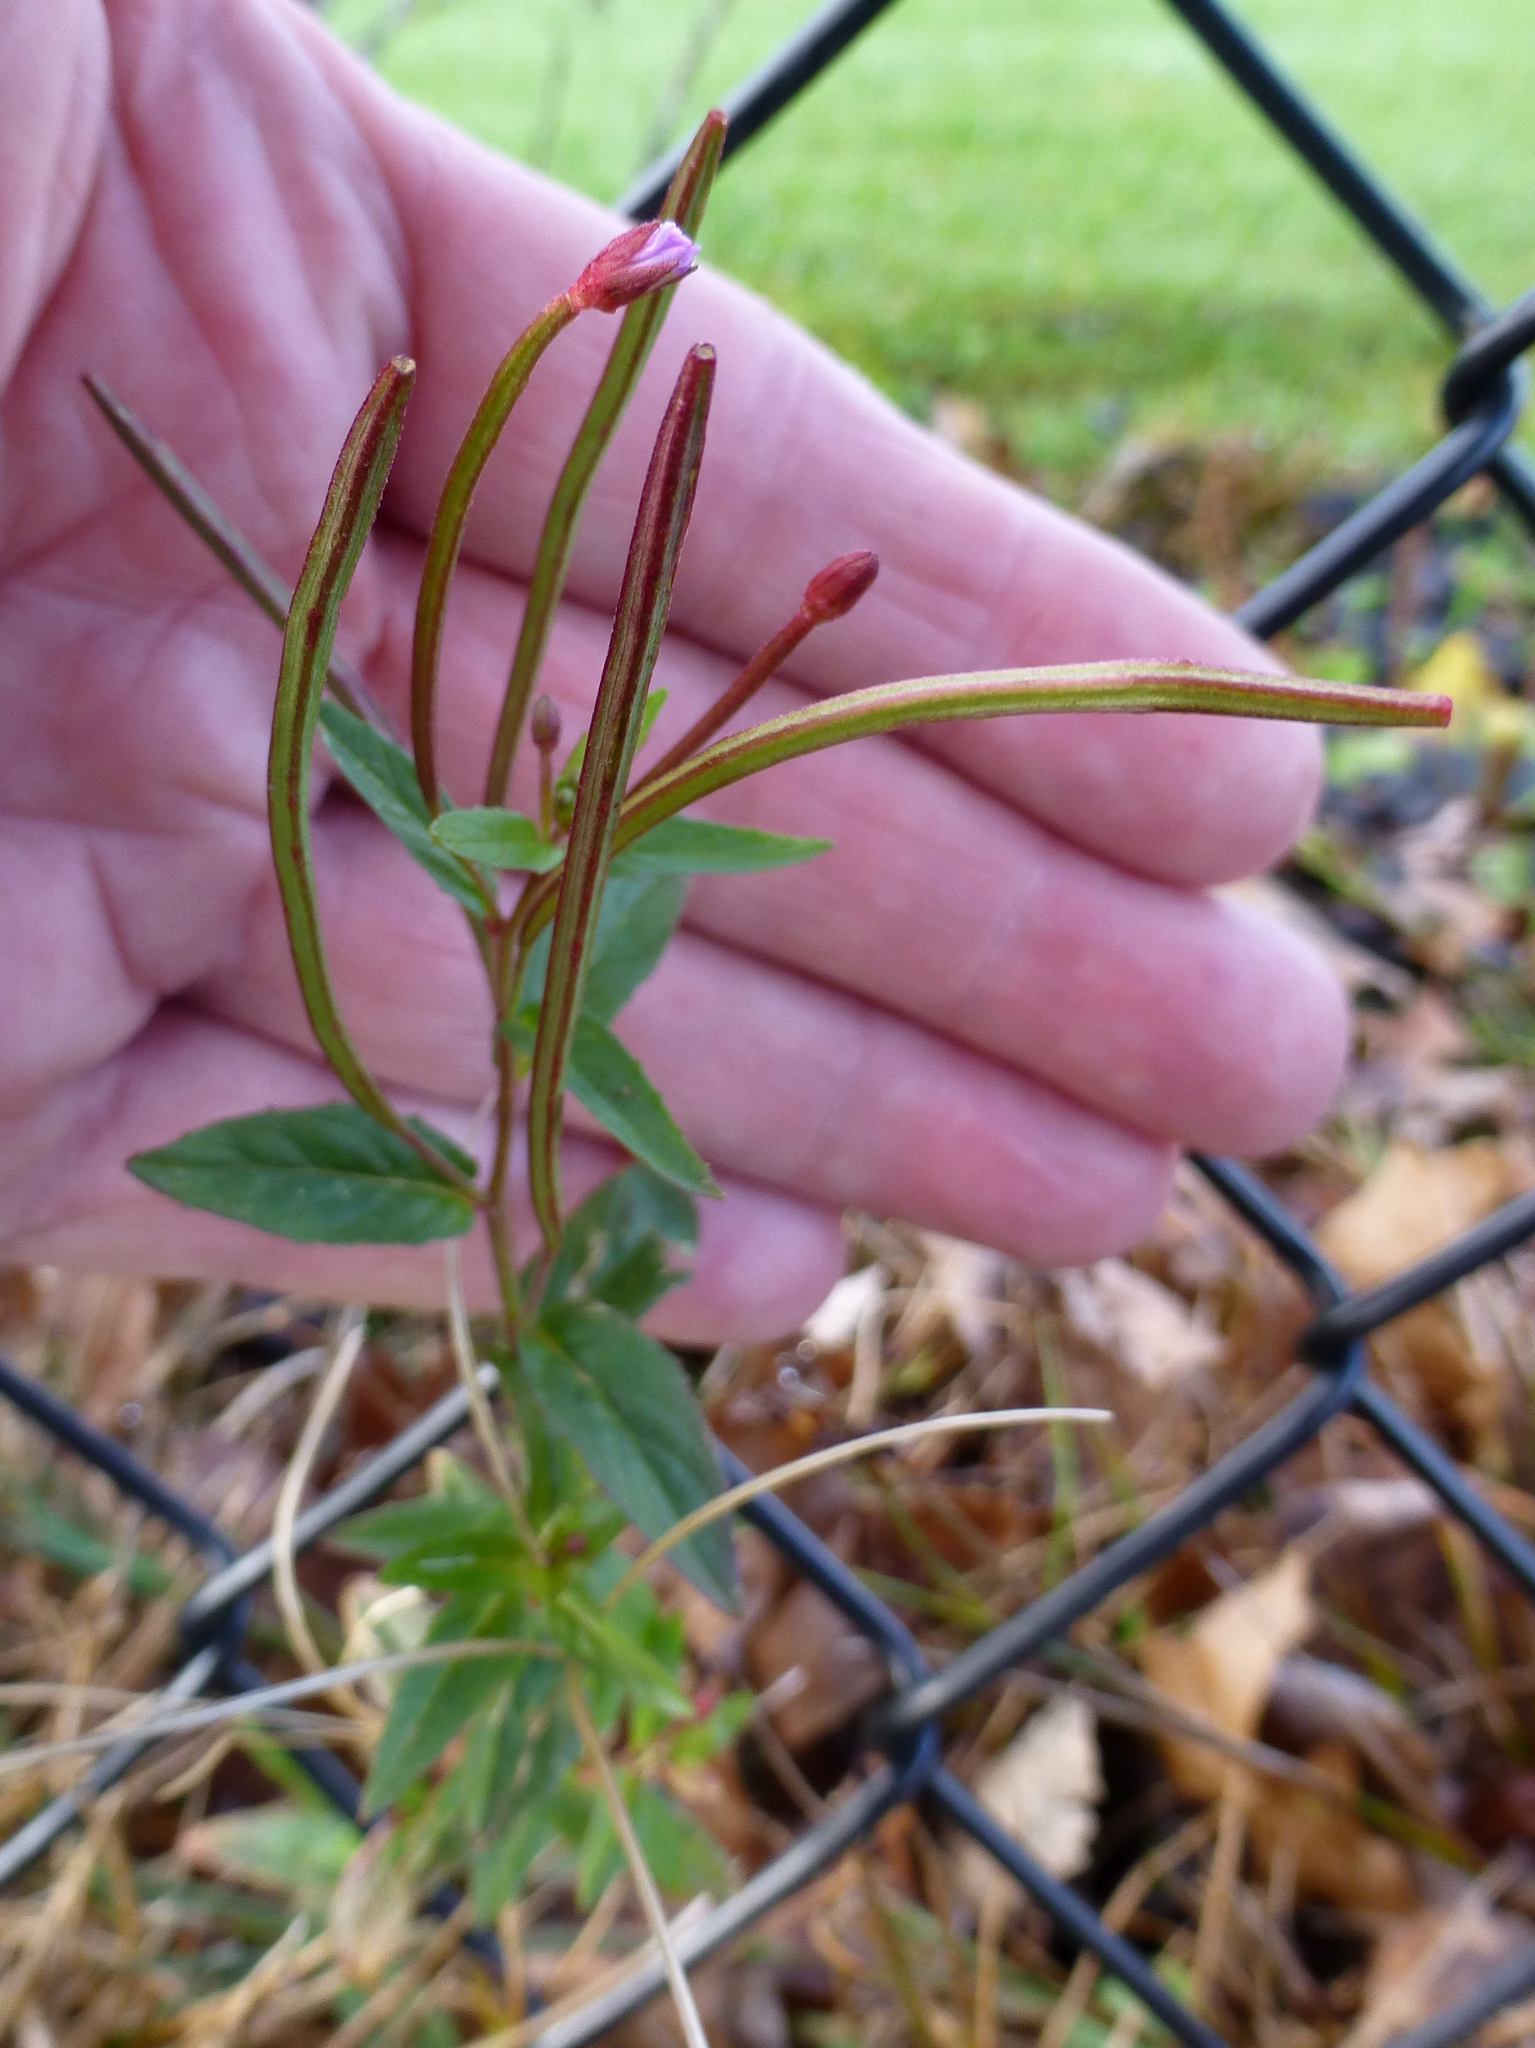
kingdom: Plantae
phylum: Tracheophyta
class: Magnoliopsida
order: Myrtales
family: Onagraceae
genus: Epilobium
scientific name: Epilobium ciliatum
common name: American willowherb
